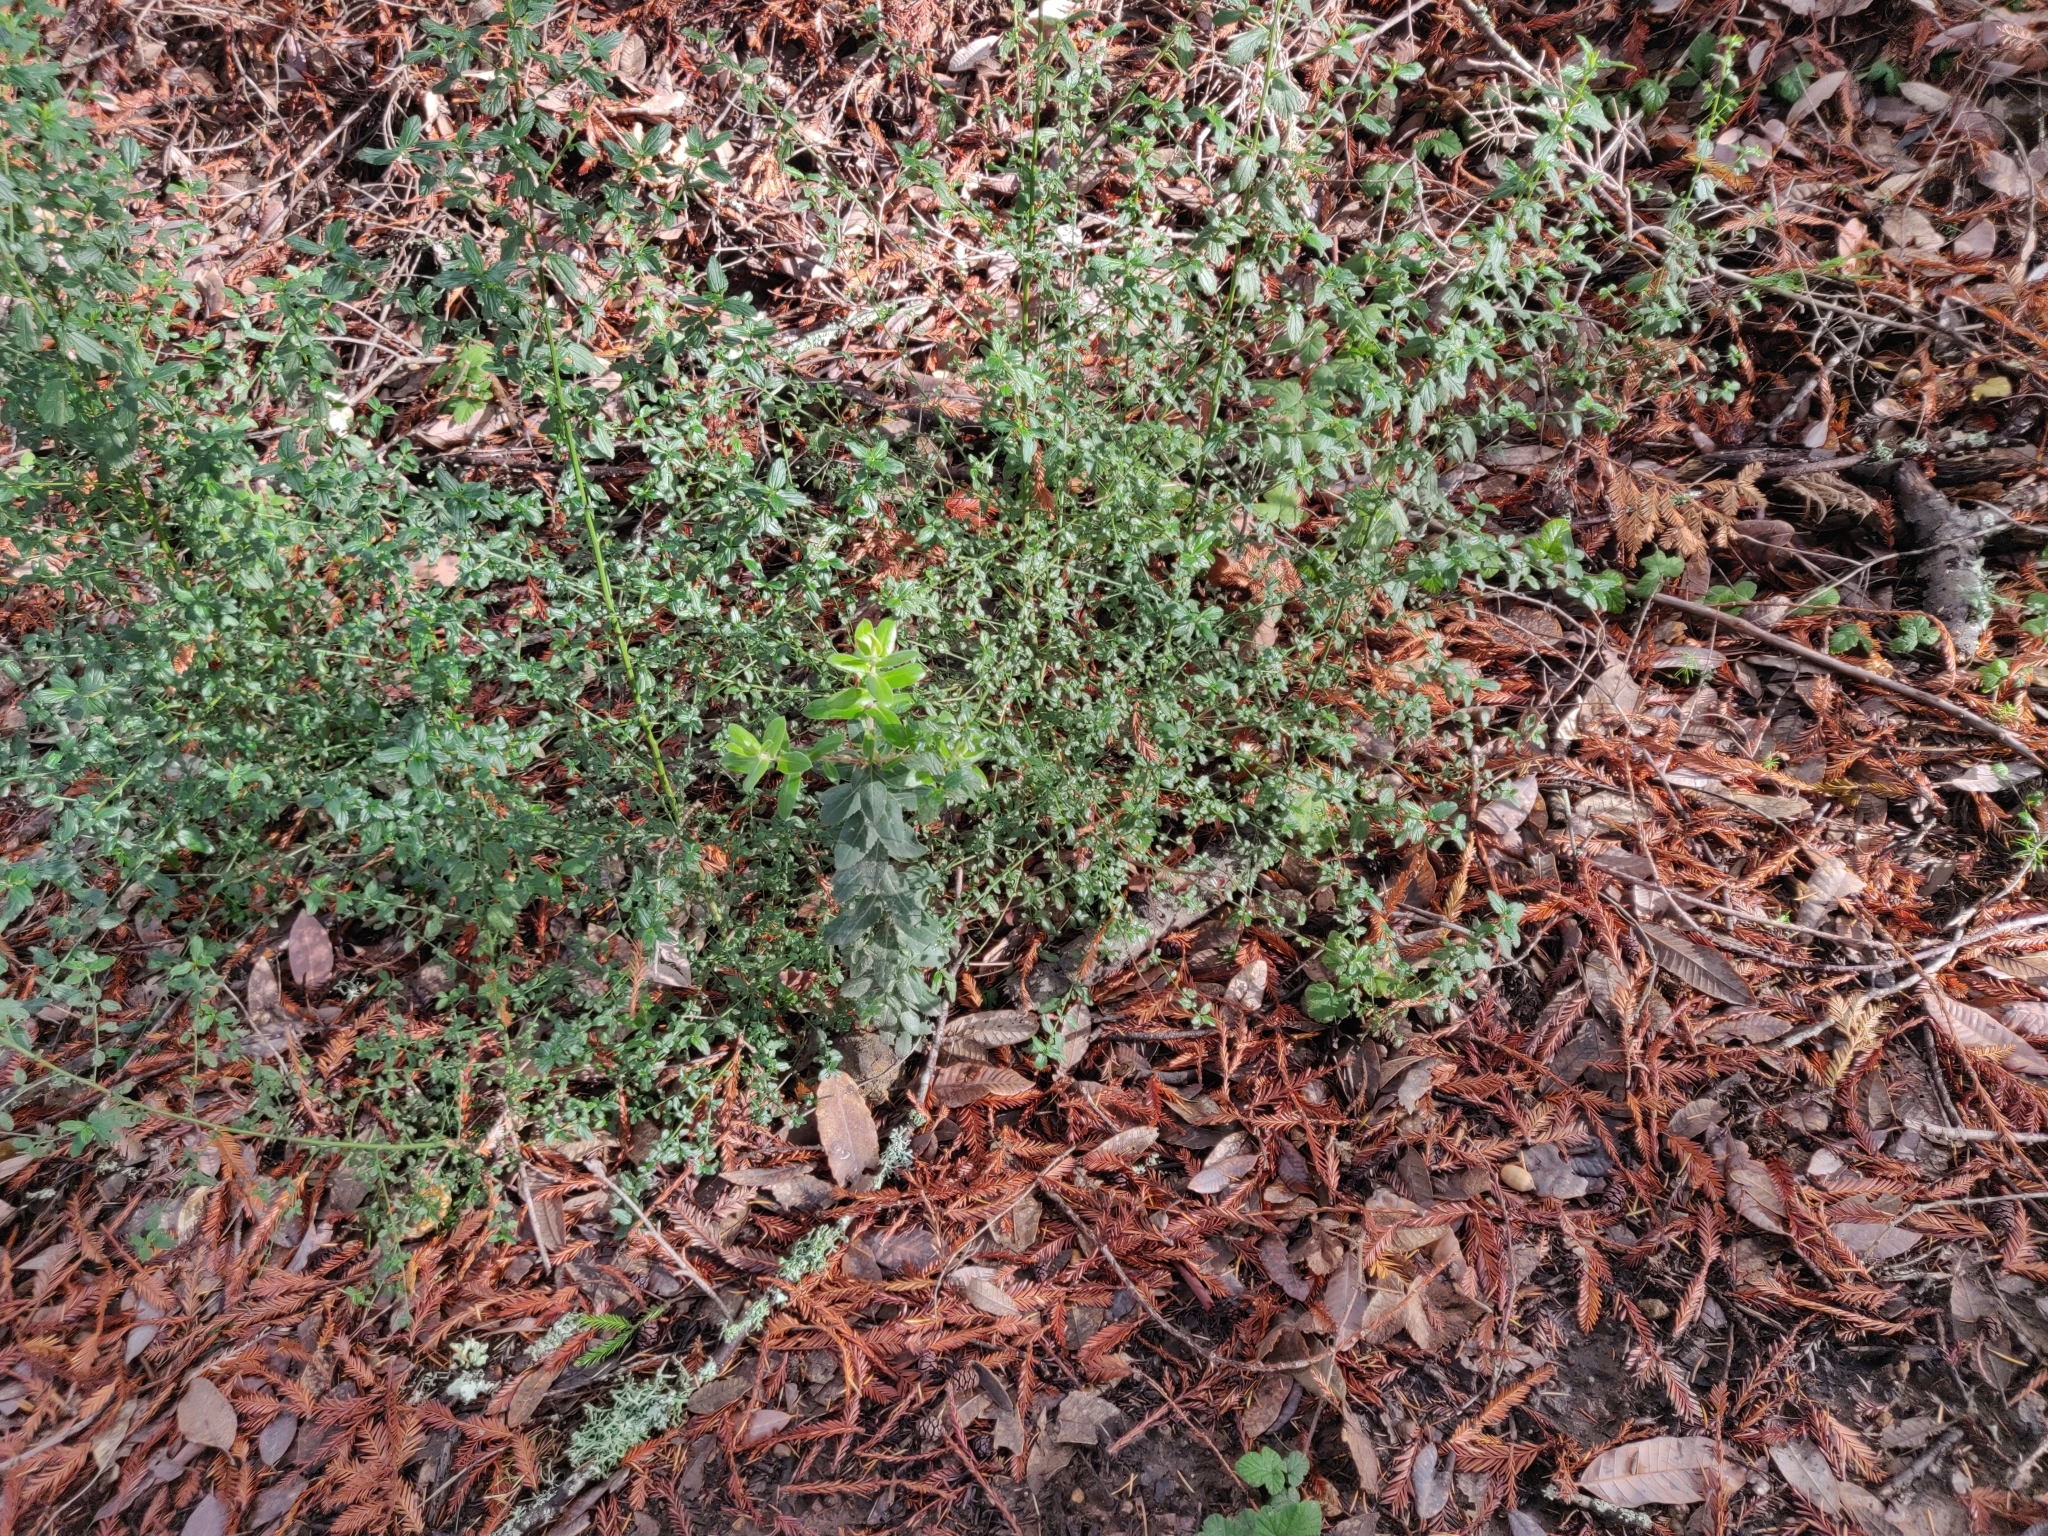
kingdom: Plantae
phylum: Tracheophyta
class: Magnoliopsida
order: Ericales
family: Ericaceae
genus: Arctostaphylos
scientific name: Arctostaphylos andersonii
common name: Santa cruz manzanita
